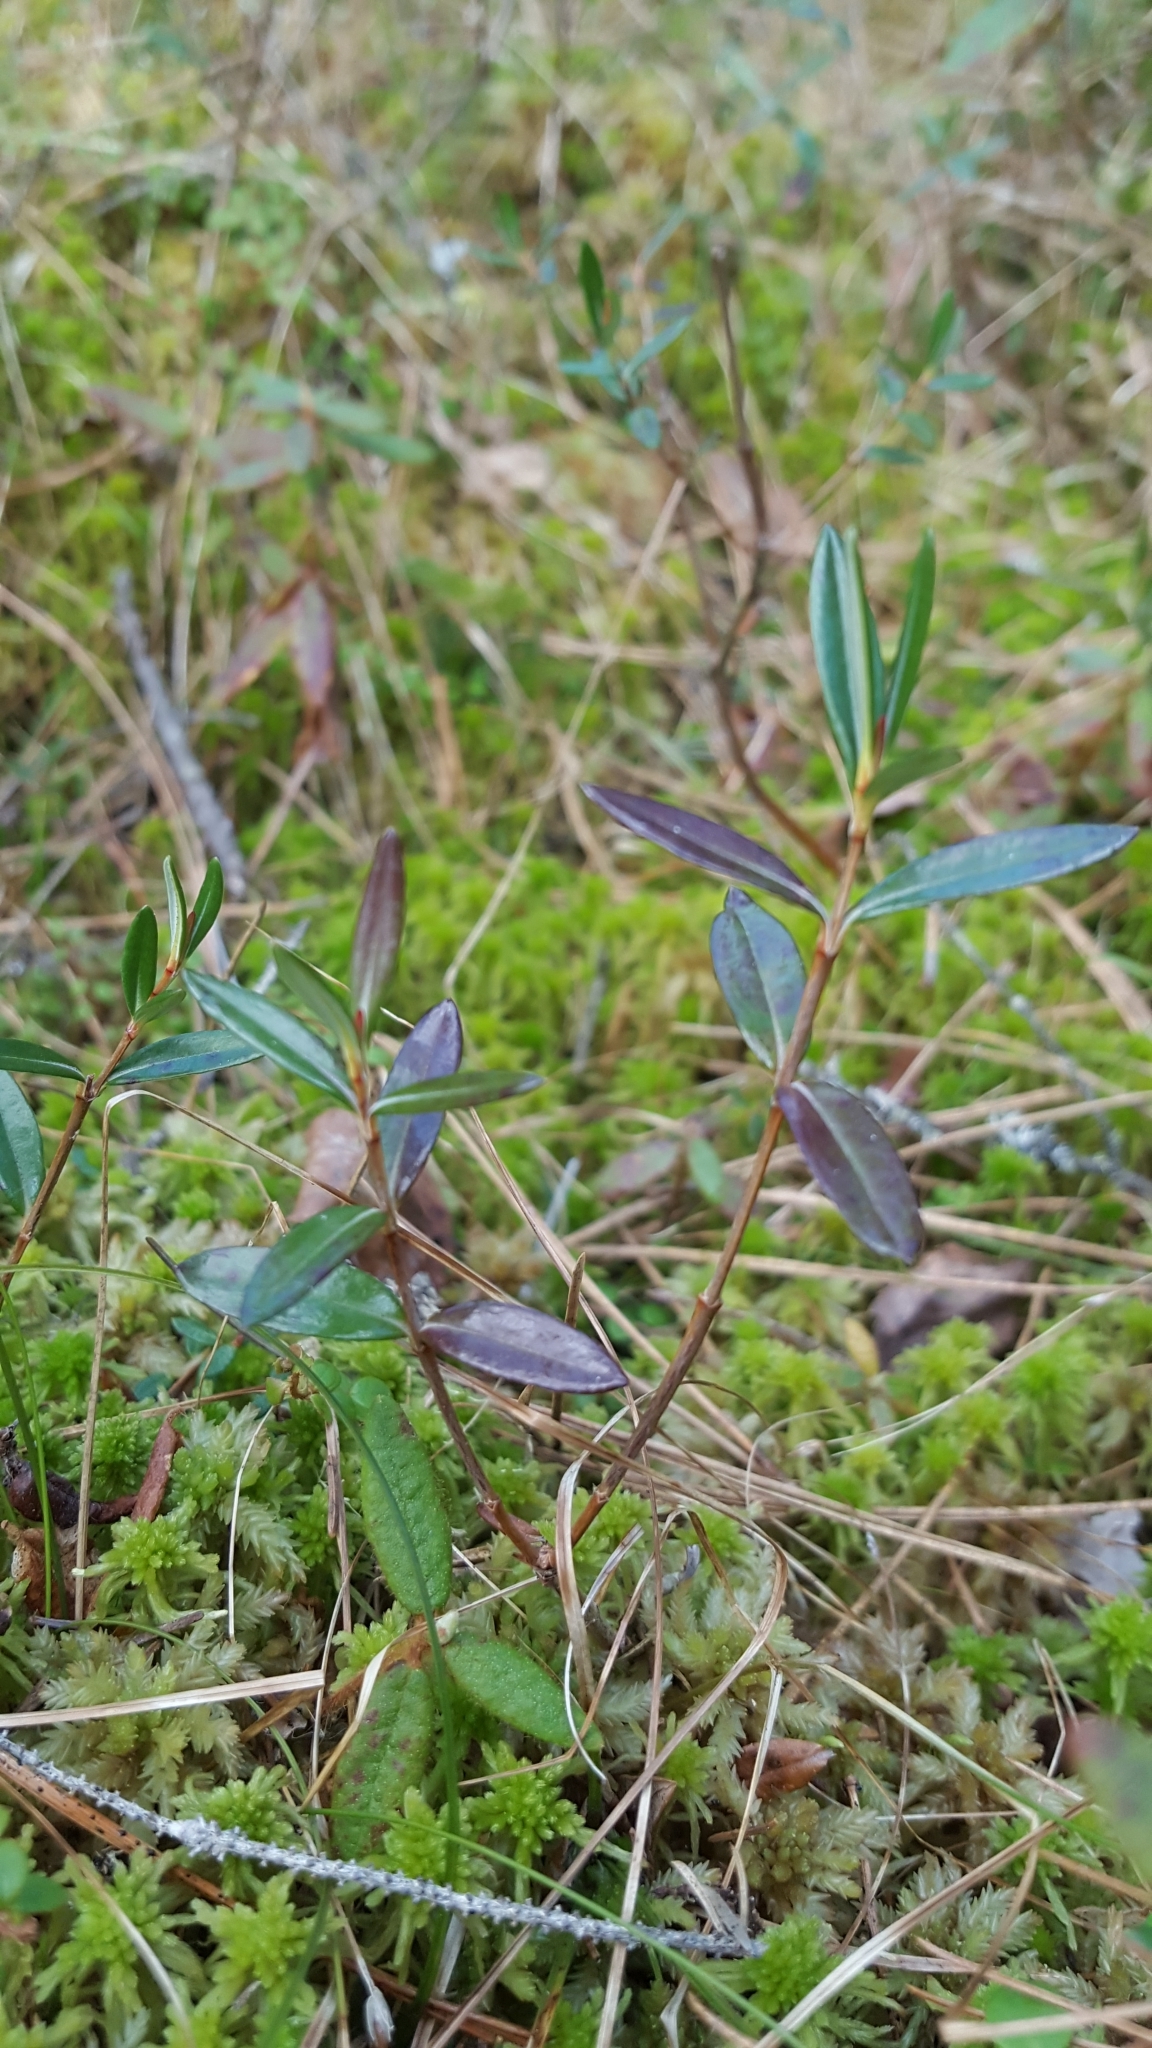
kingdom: Plantae
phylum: Tracheophyta
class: Magnoliopsida
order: Ericales
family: Ericaceae
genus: Kalmia
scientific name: Kalmia polifolia
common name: Bog-laurel
